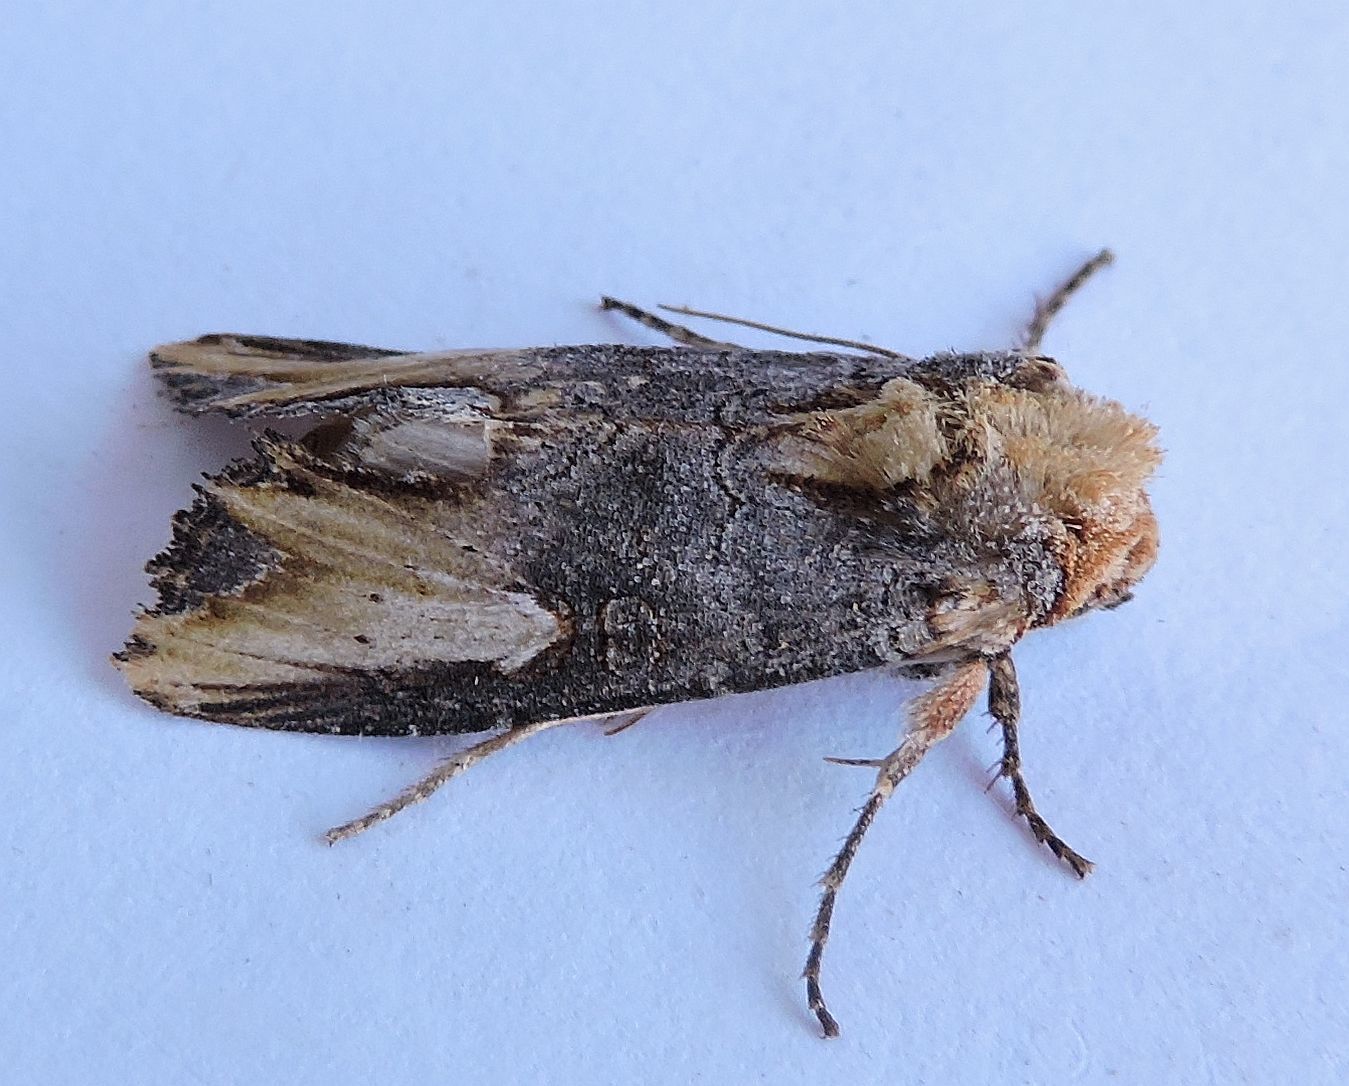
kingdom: Animalia
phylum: Arthropoda
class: Insecta
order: Lepidoptera
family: Noctuidae
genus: Admetovis
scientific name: Admetovis similaris
